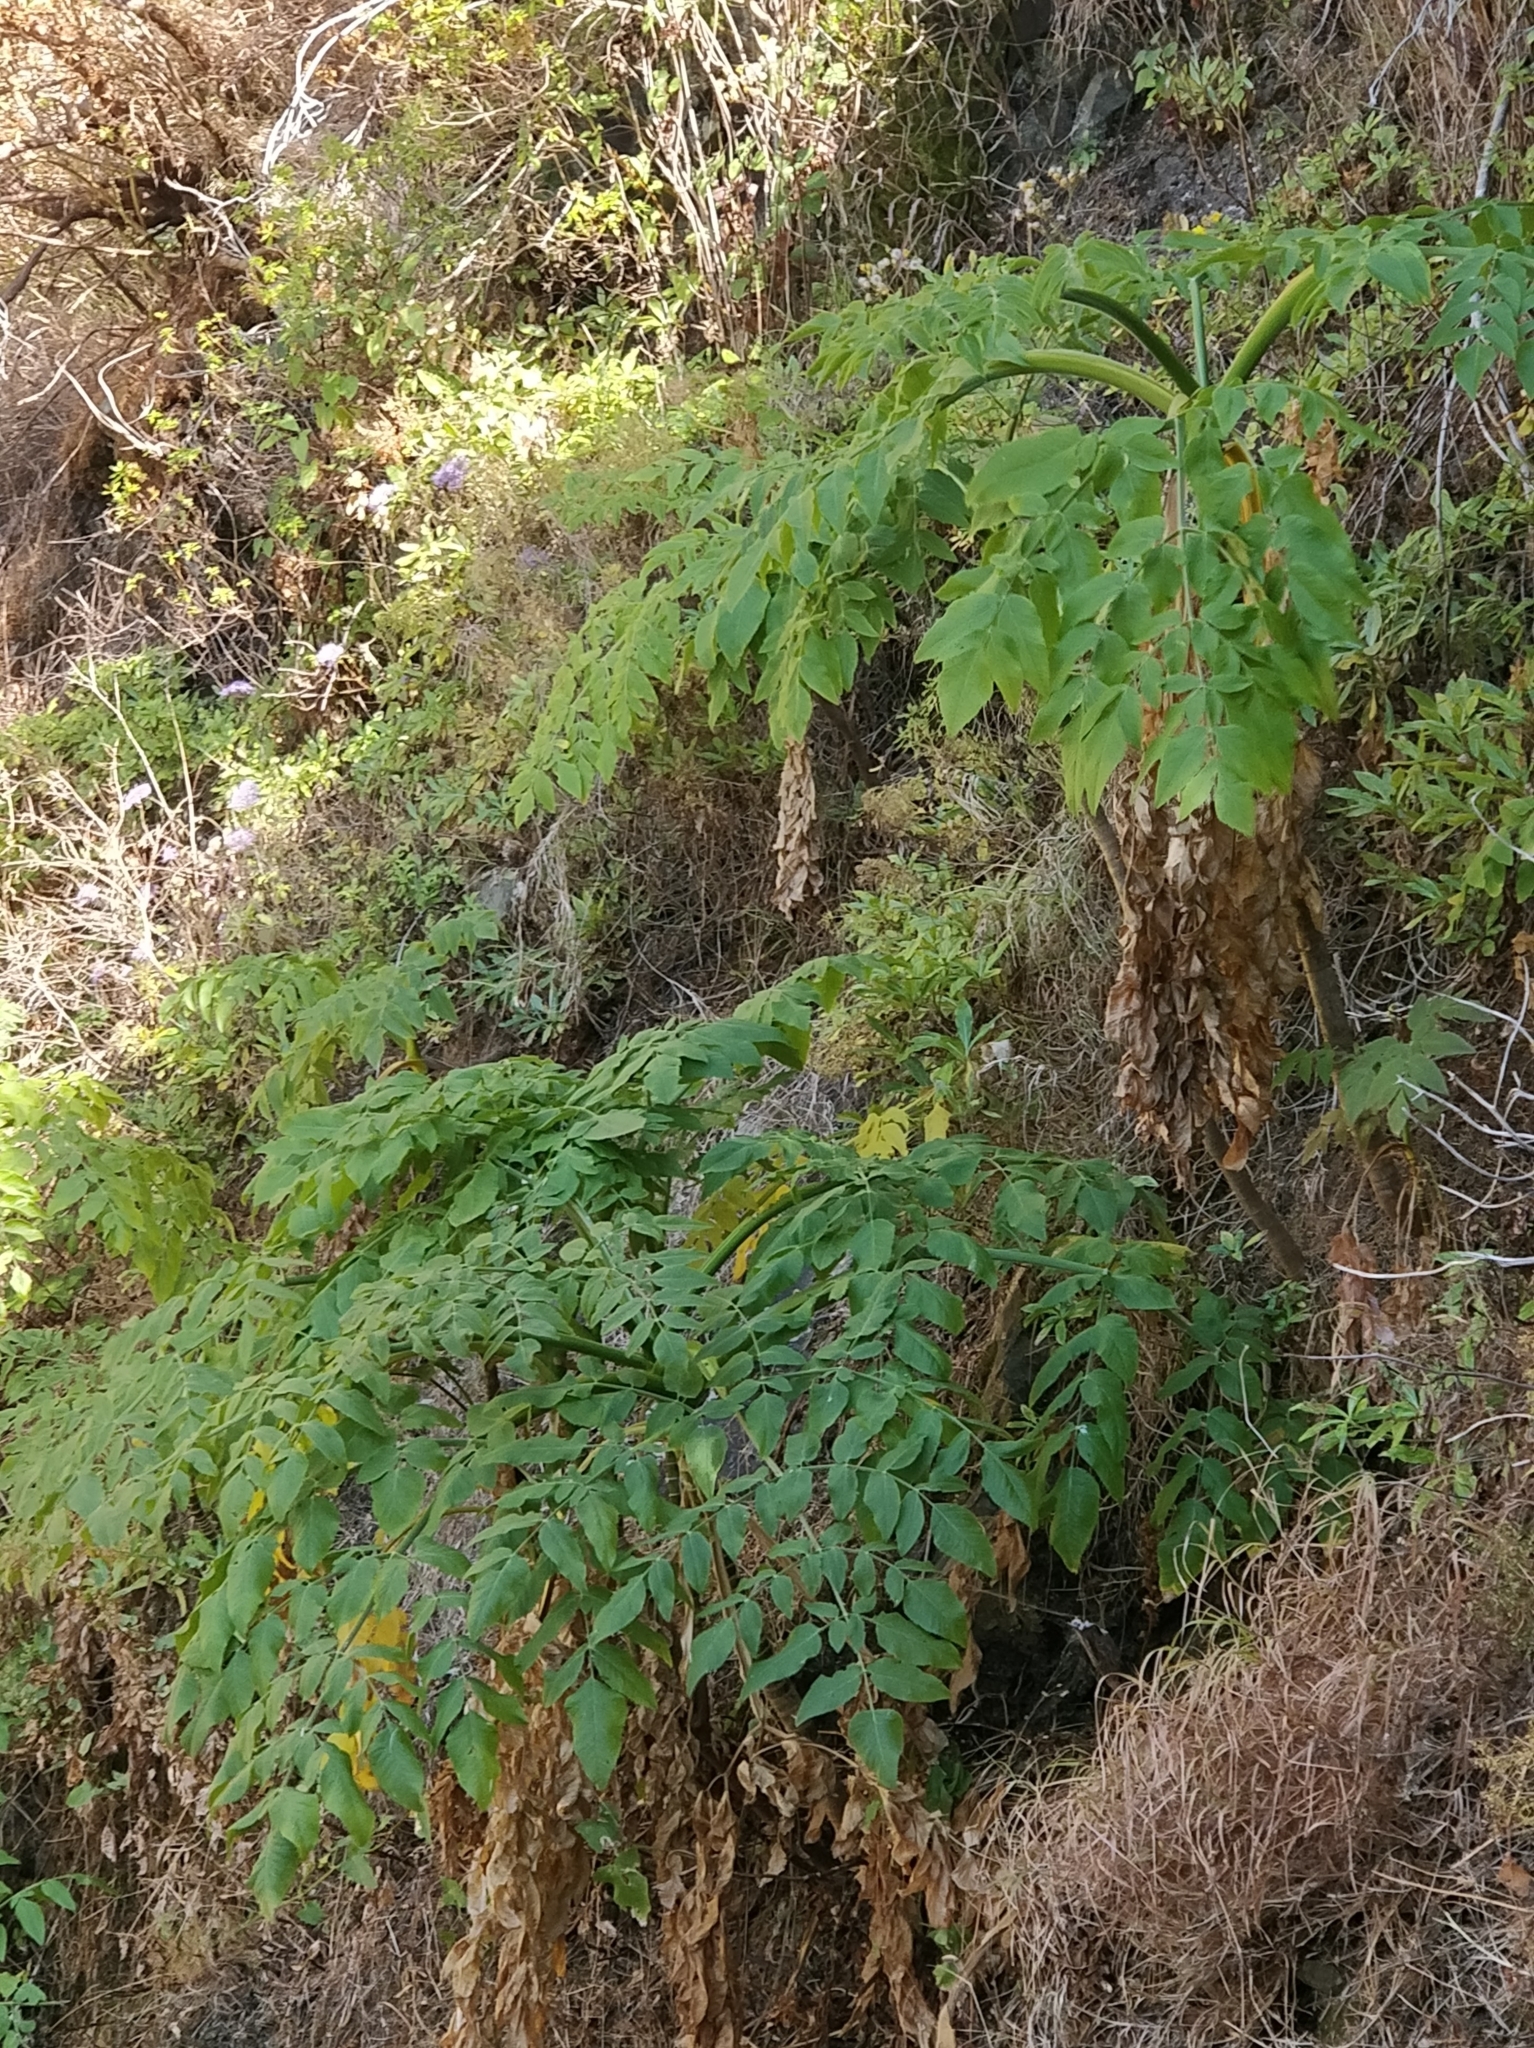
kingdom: Plantae
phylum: Tracheophyta
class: Magnoliopsida
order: Apiales
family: Apiaceae
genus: Daucus
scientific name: Daucus decipiens
